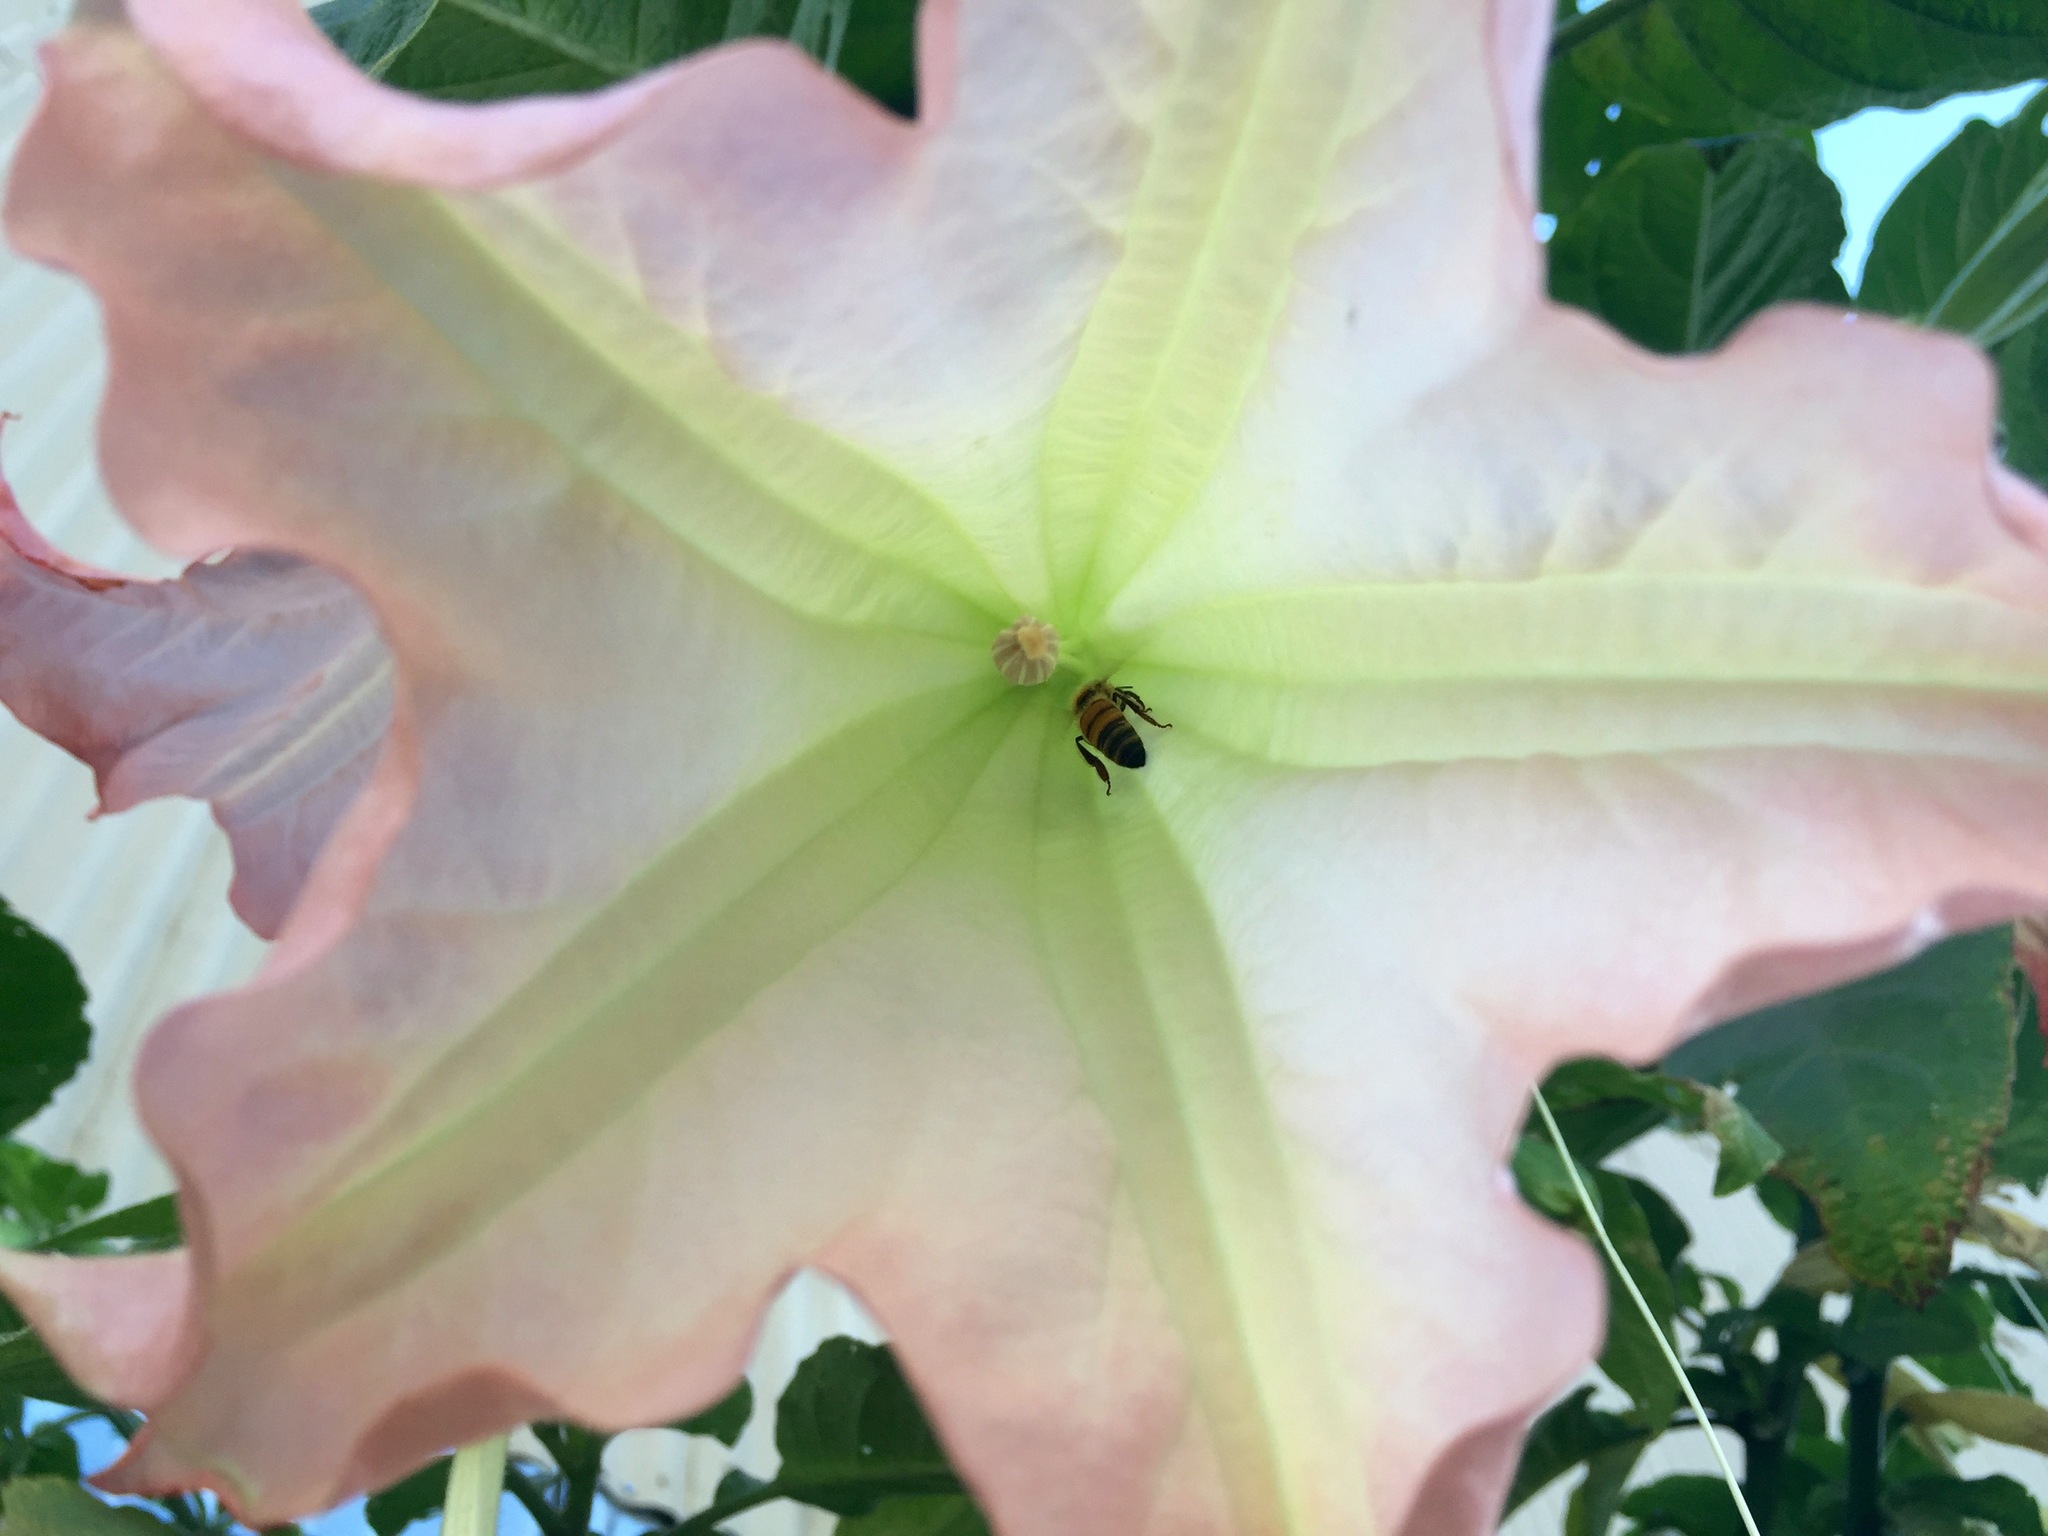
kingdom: Animalia
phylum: Arthropoda
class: Insecta
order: Hymenoptera
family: Apidae
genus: Apis
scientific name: Apis mellifera
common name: Honey bee
